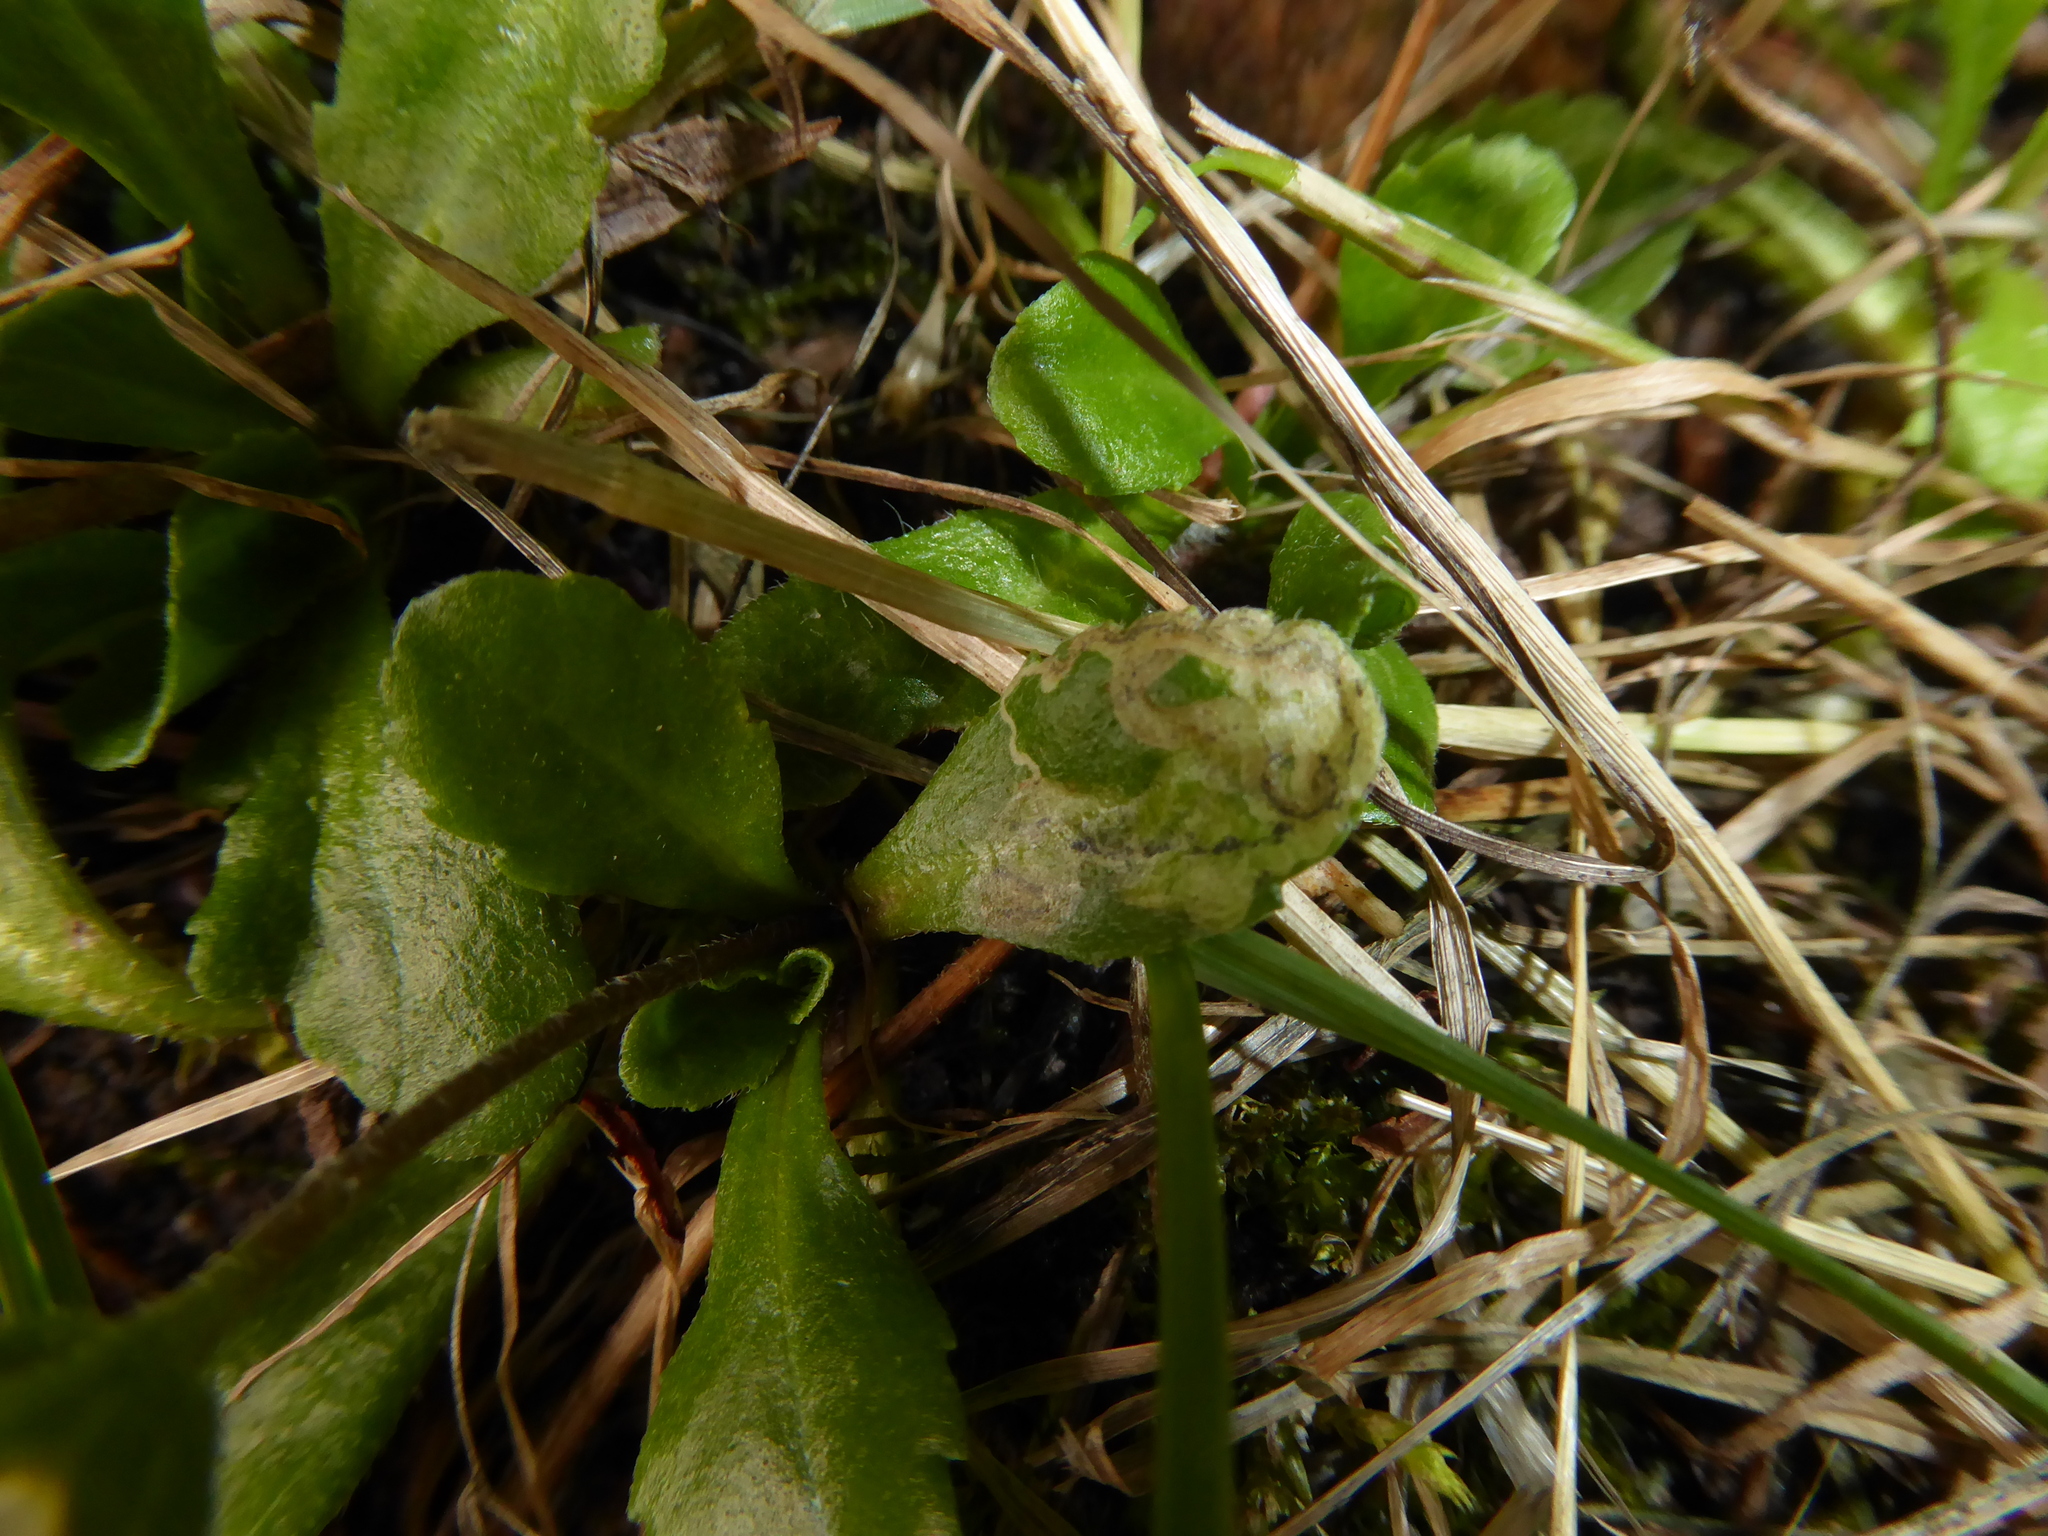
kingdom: Animalia
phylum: Arthropoda
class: Insecta
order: Diptera
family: Agromyzidae
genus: Liriomyza
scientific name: Liriomyza pusilla
